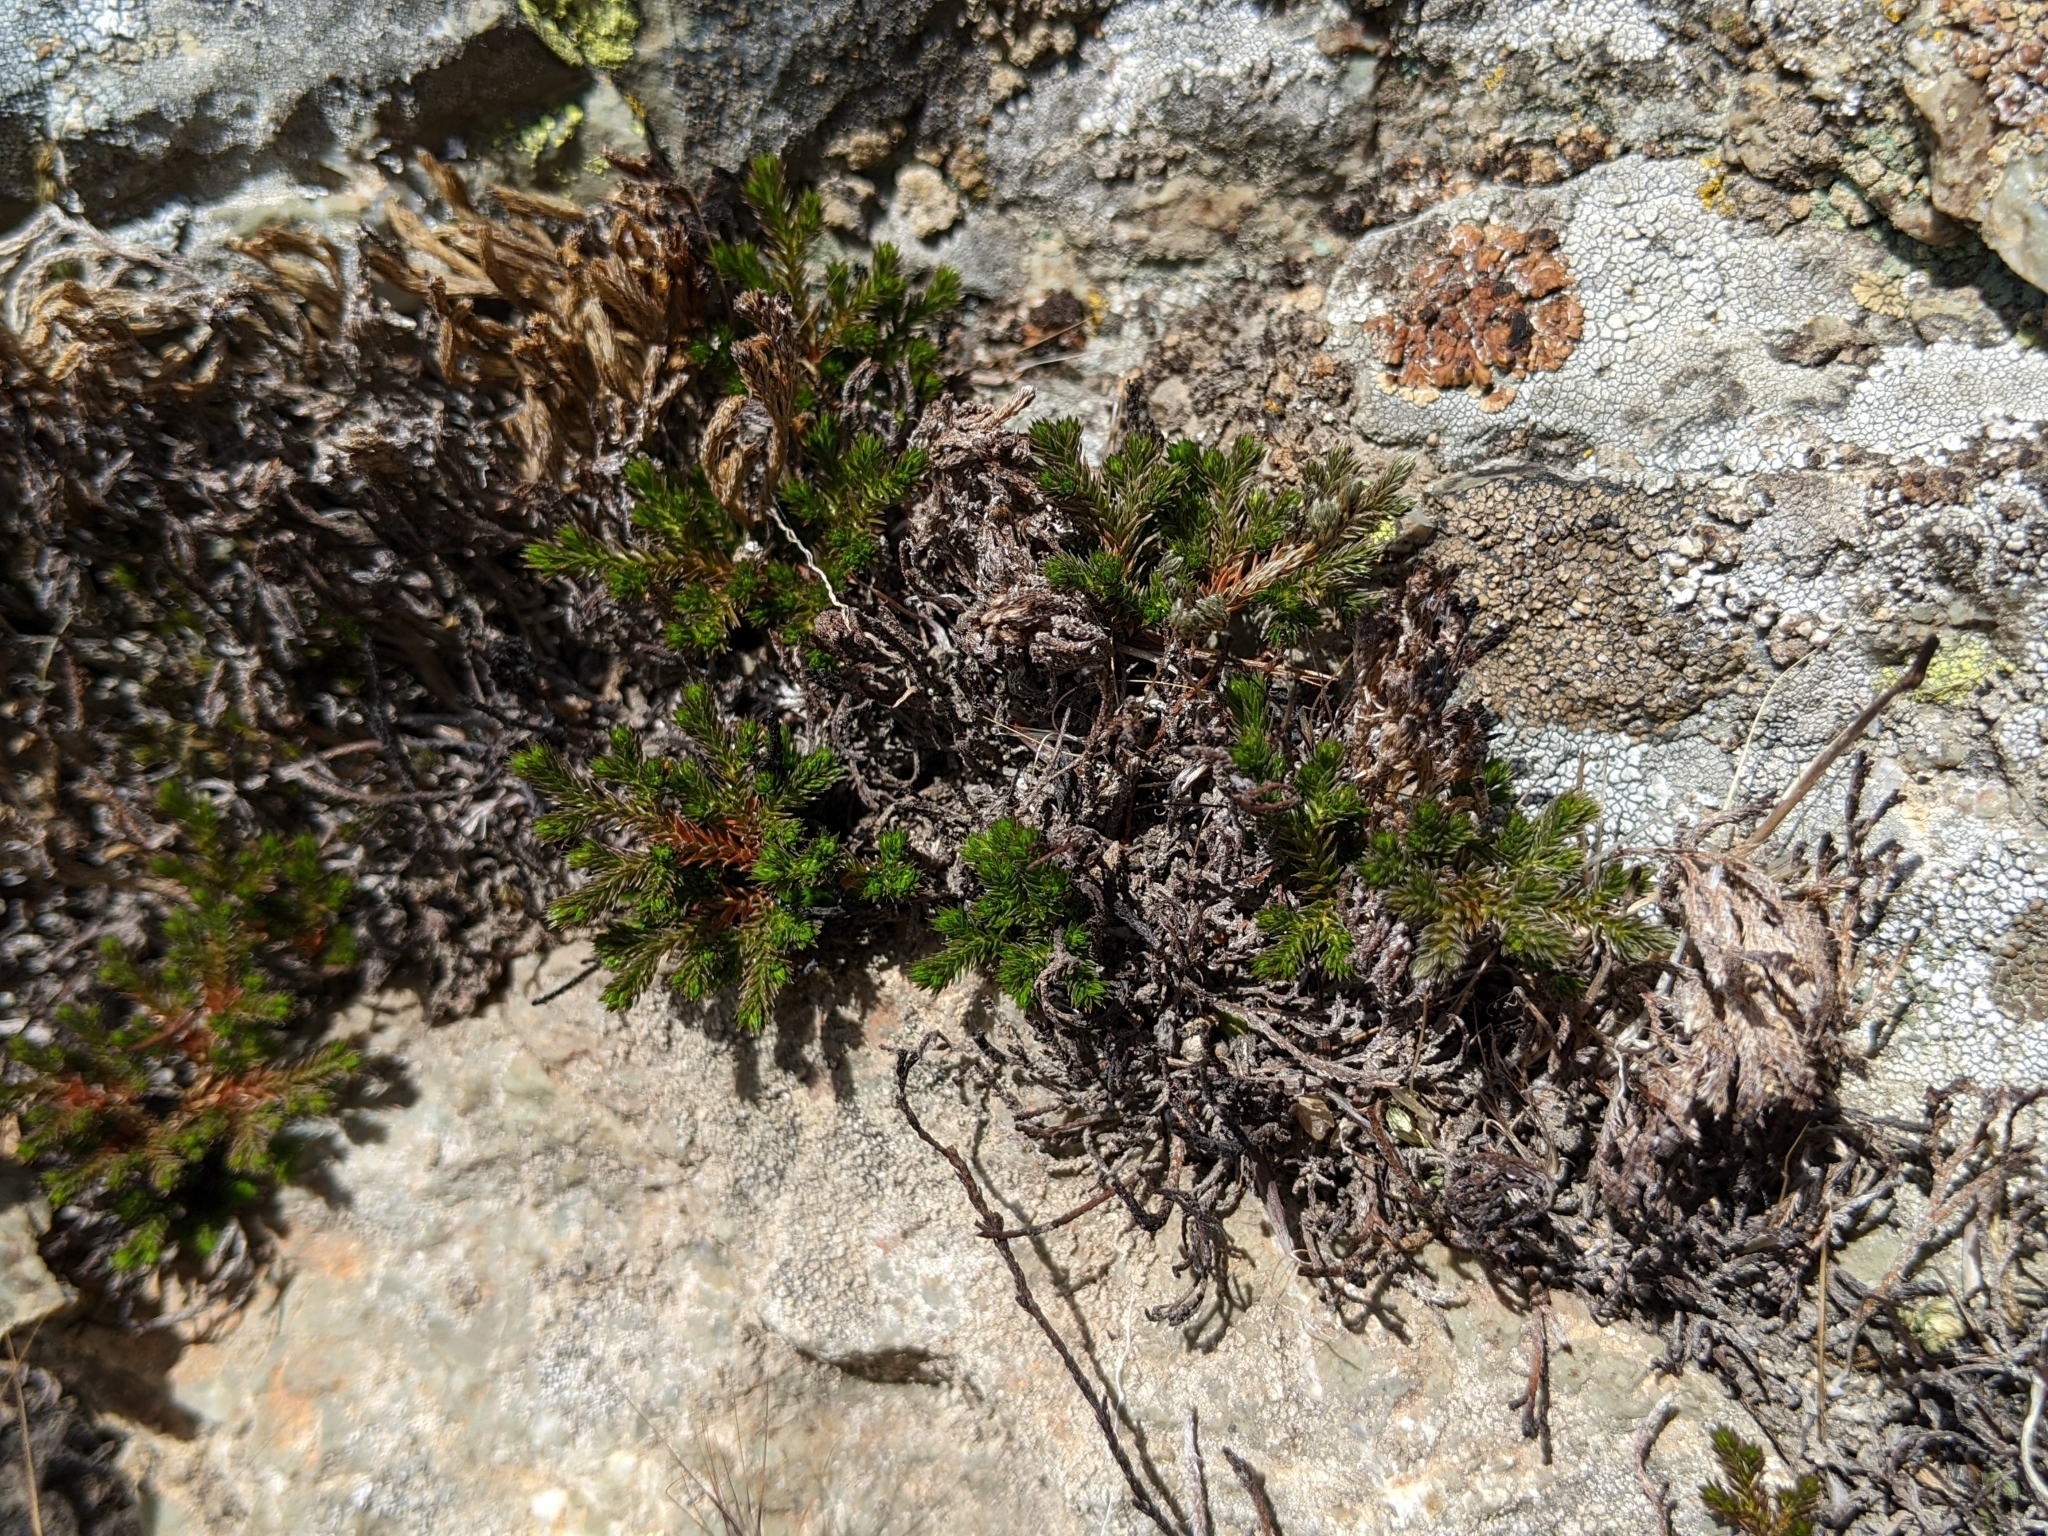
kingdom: Plantae
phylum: Tracheophyta
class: Lycopodiopsida
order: Selaginellales
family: Selaginellaceae
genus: Selaginella
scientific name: Selaginella bigelovii
